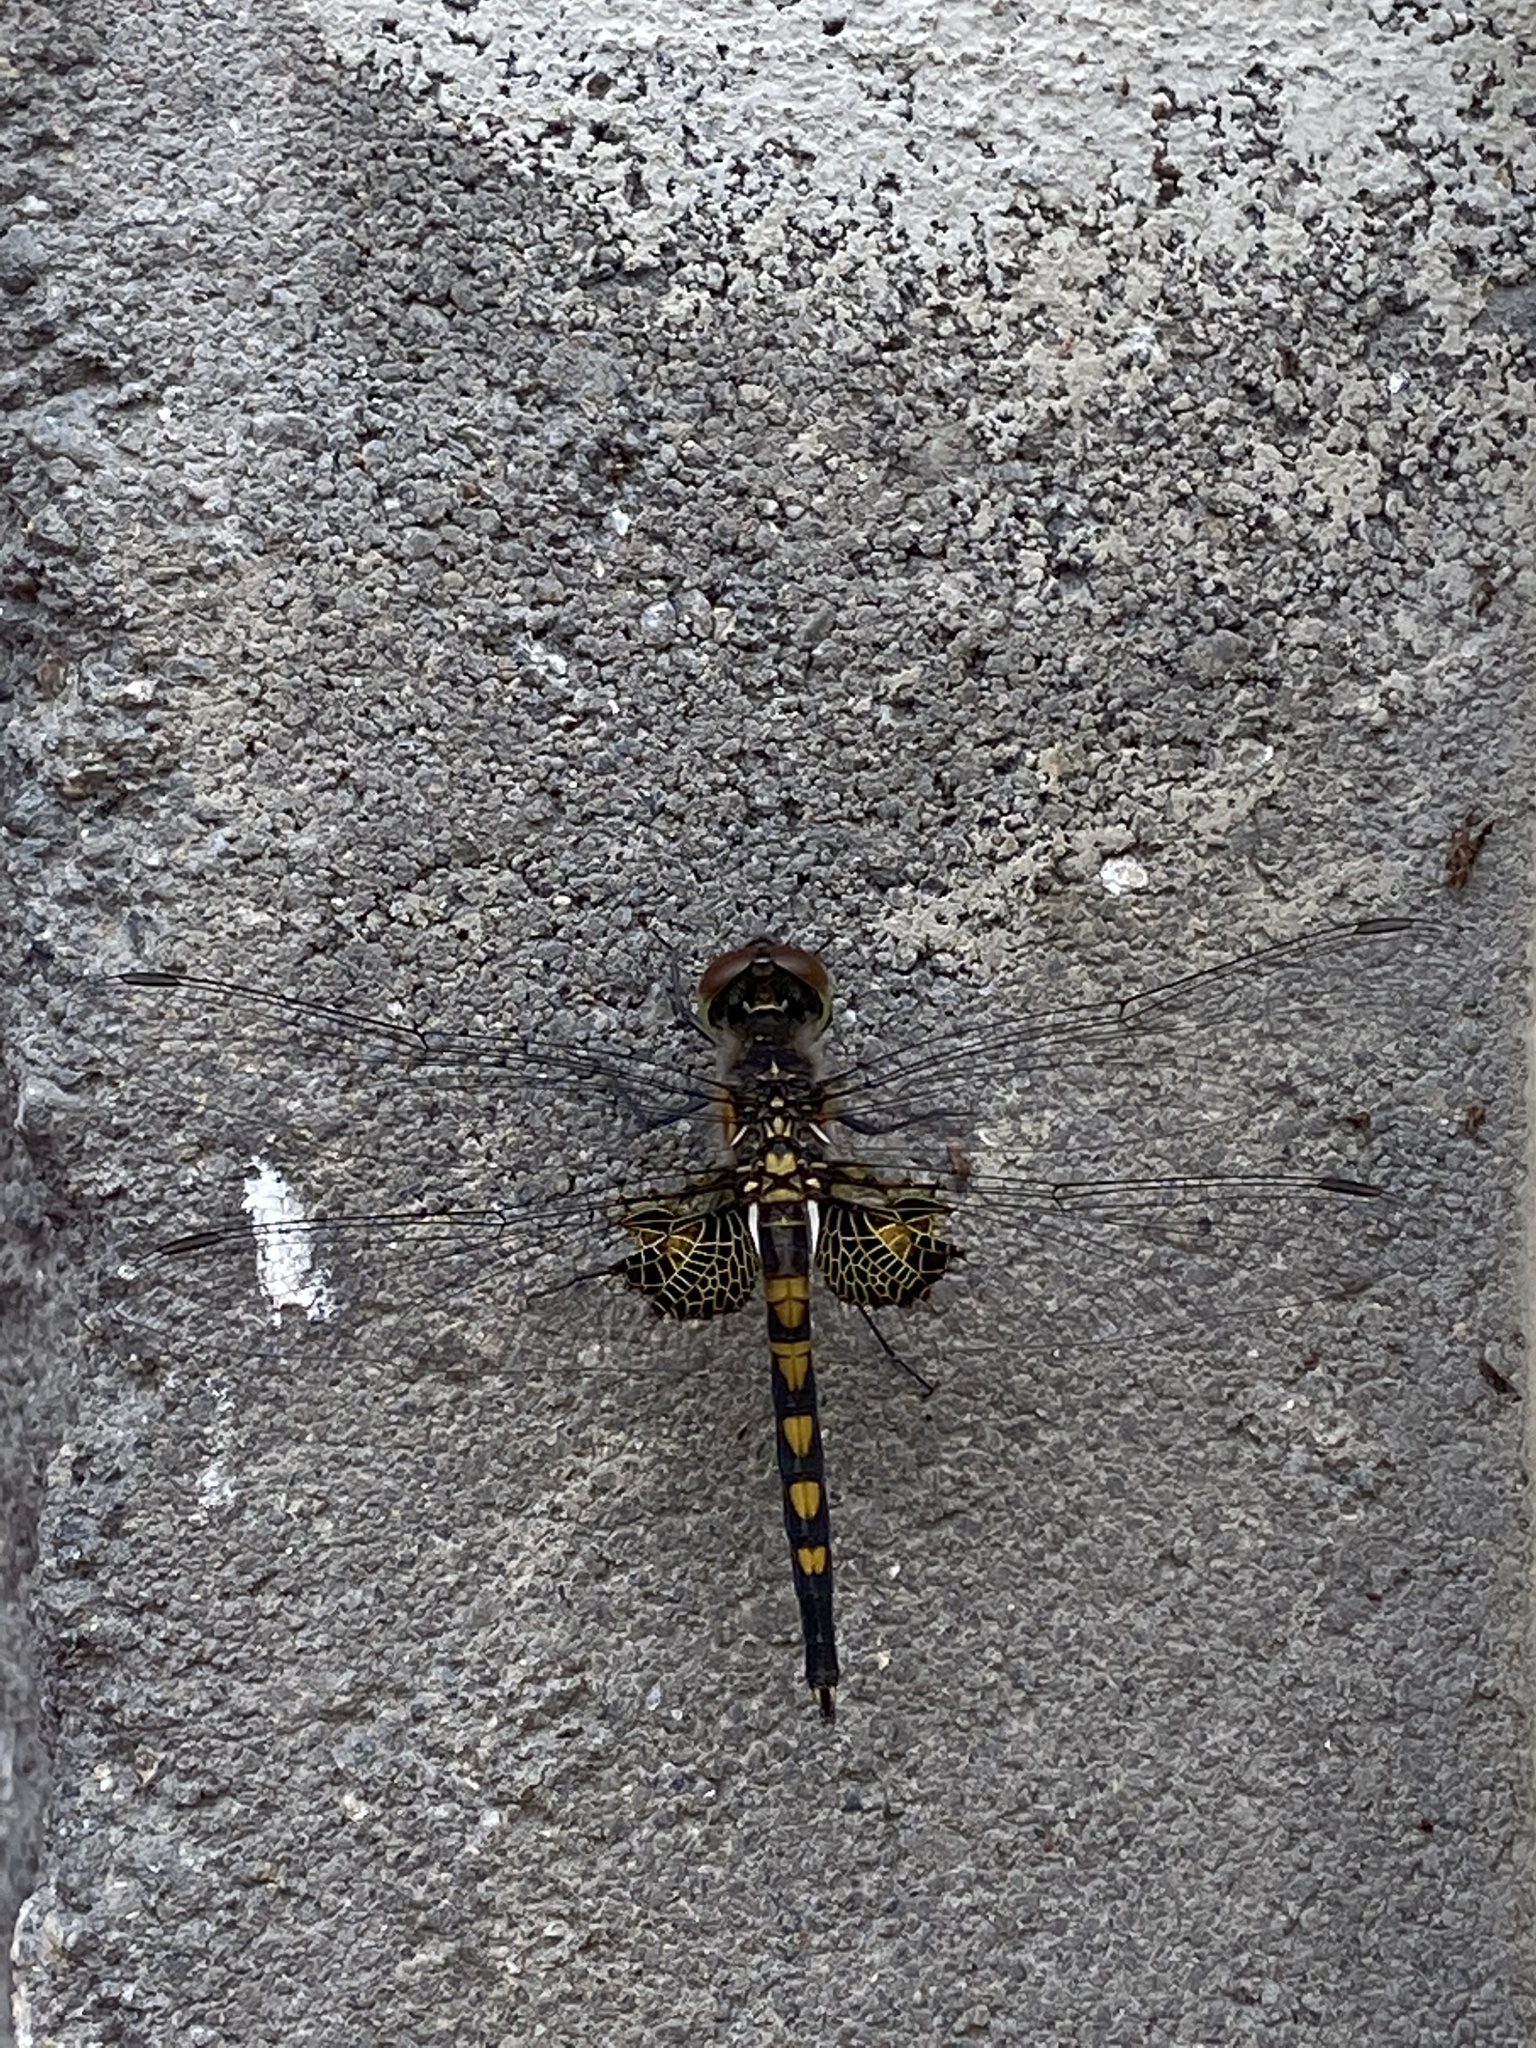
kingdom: Animalia
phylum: Arthropoda
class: Insecta
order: Odonata
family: Libellulidae
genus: Celithemis
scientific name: Celithemis martha
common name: Martha's pennant
